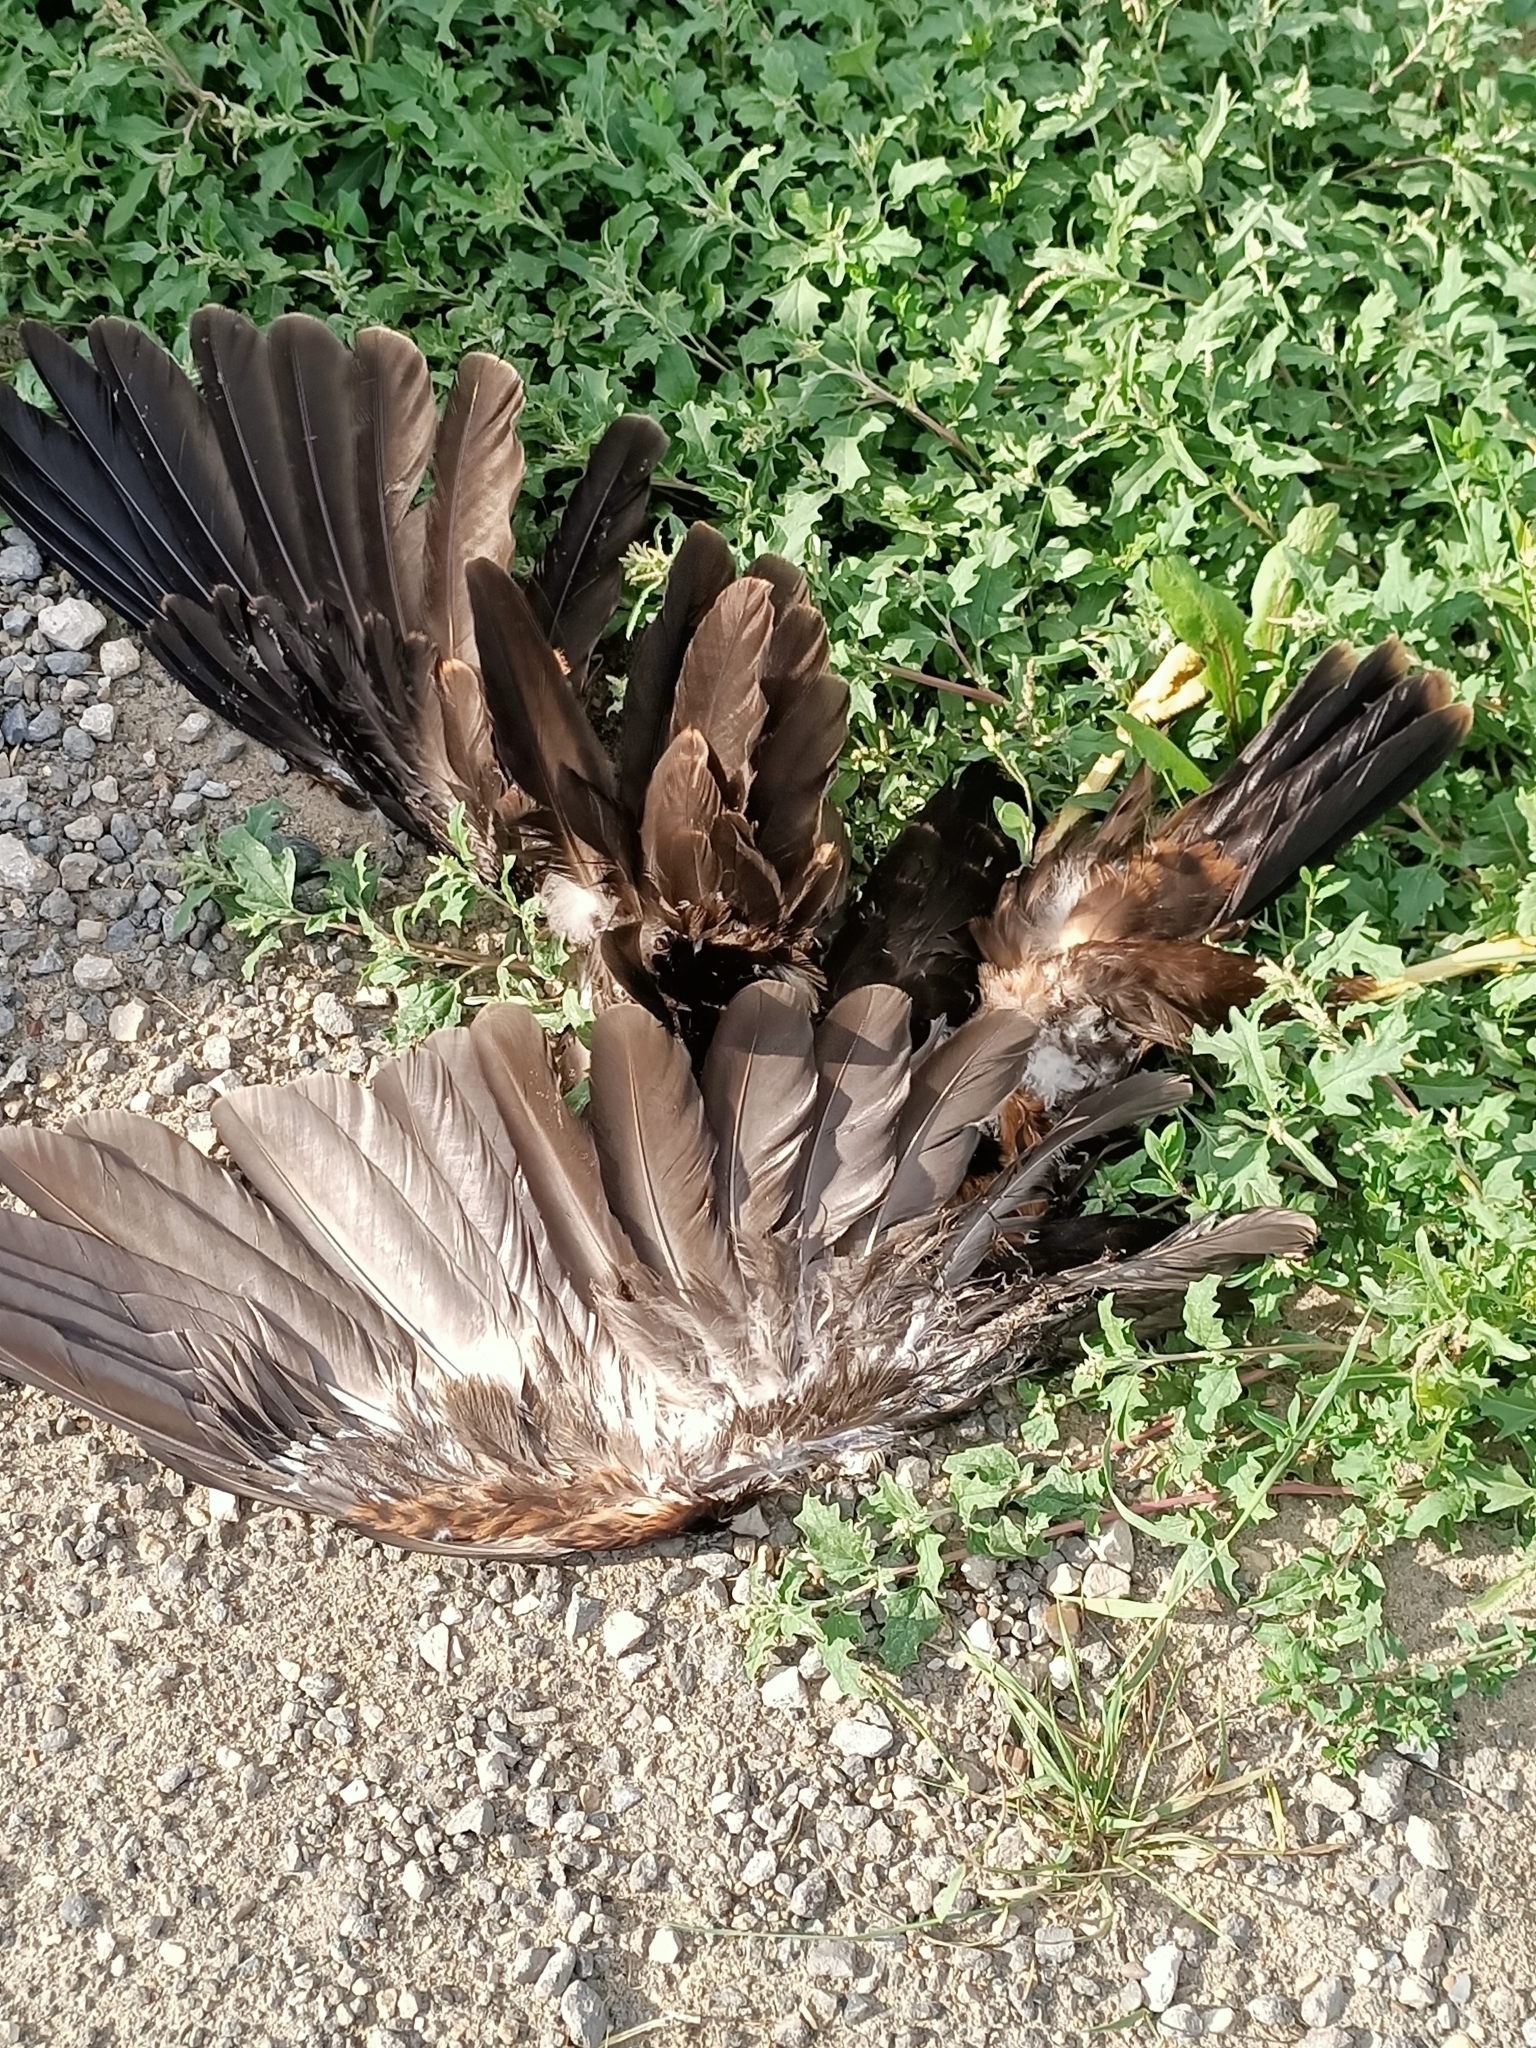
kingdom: Animalia
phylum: Chordata
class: Aves
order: Accipitriformes
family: Accipitridae
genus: Circus
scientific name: Circus aeruginosus
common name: Western marsh harrier
